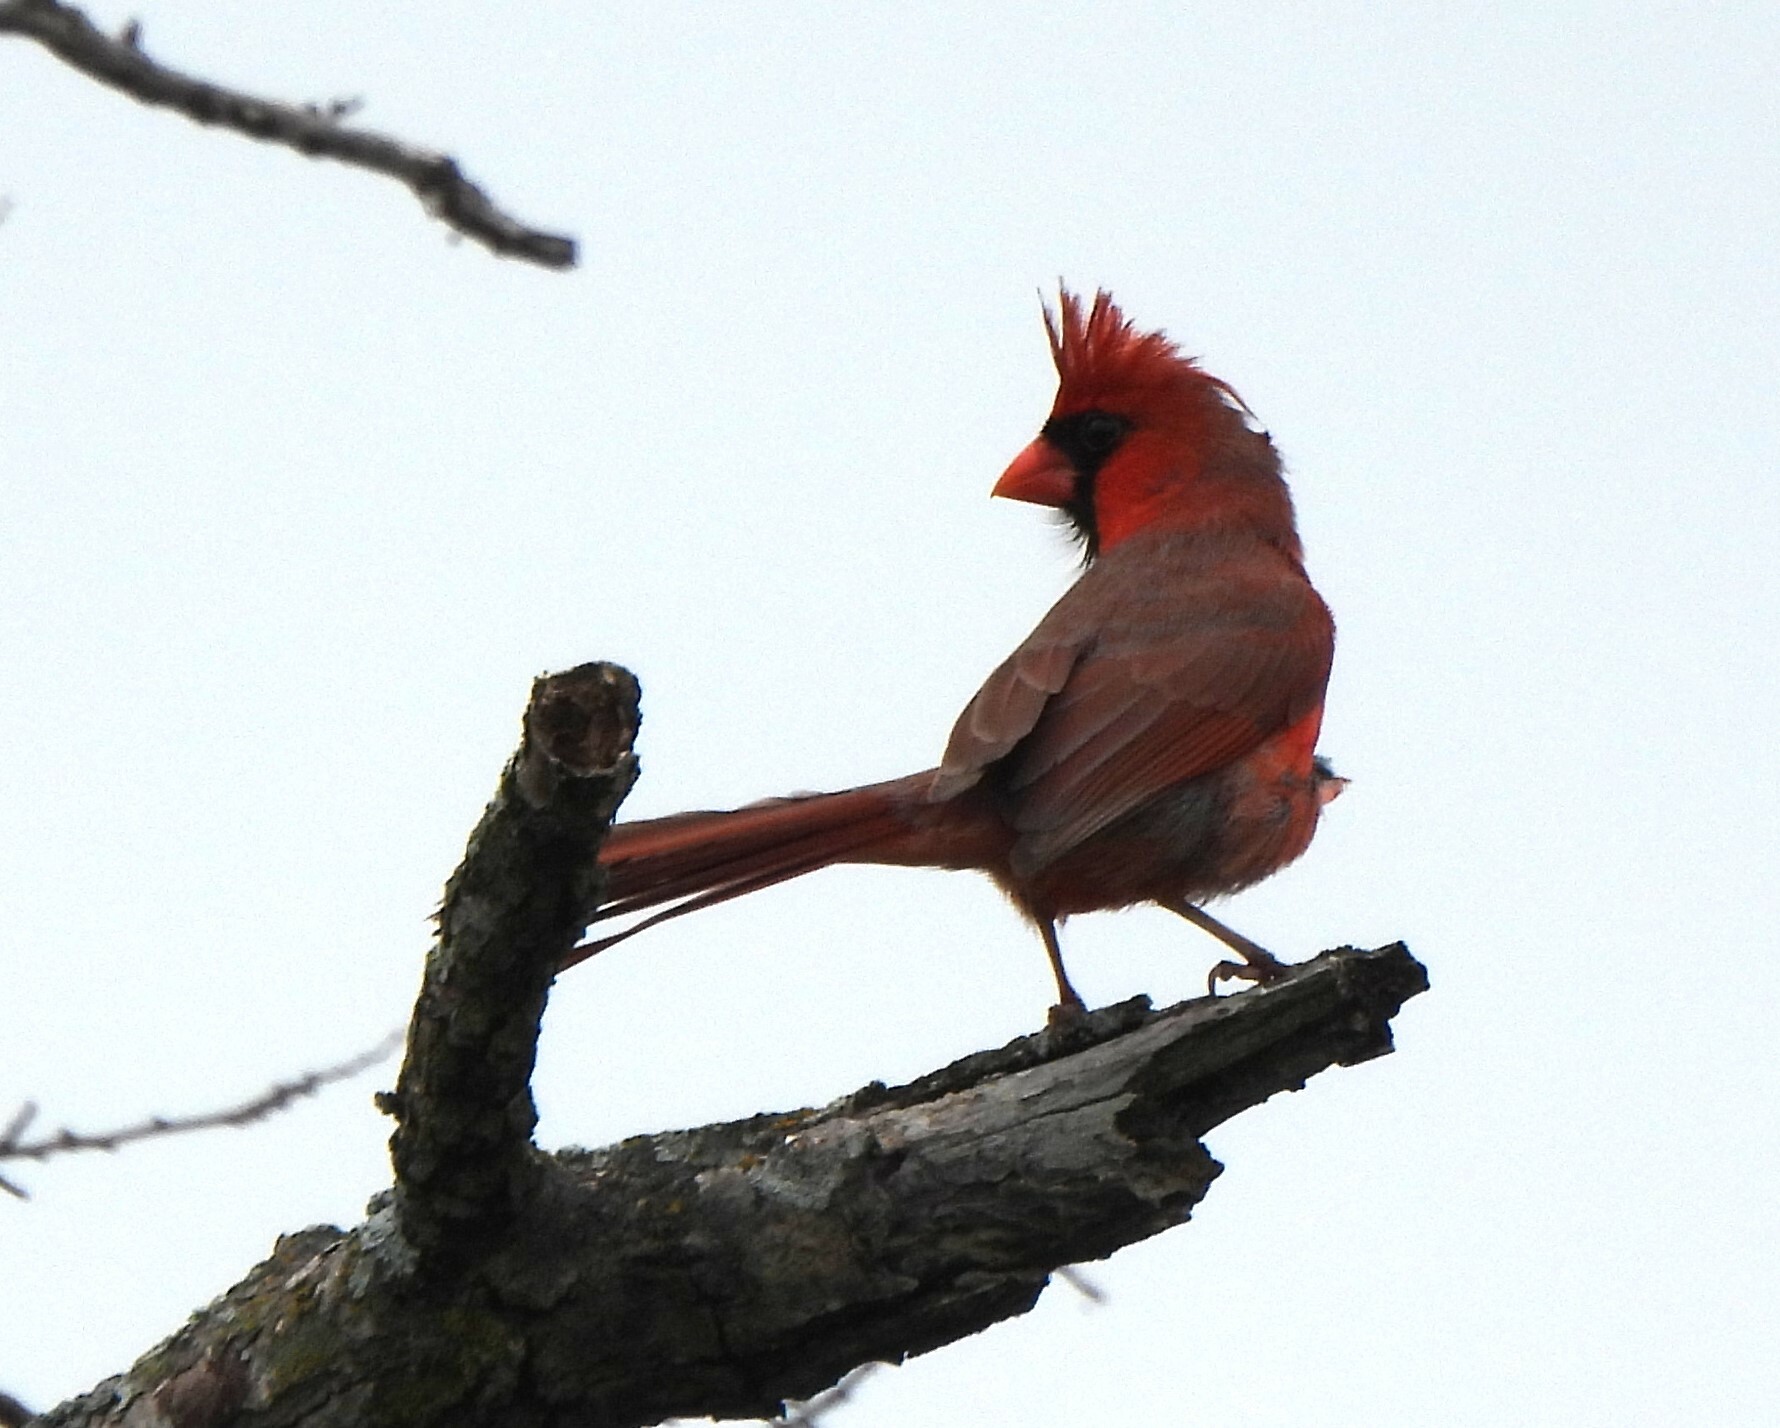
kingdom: Animalia
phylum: Chordata
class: Aves
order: Passeriformes
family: Cardinalidae
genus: Cardinalis
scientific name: Cardinalis cardinalis
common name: Northern cardinal
